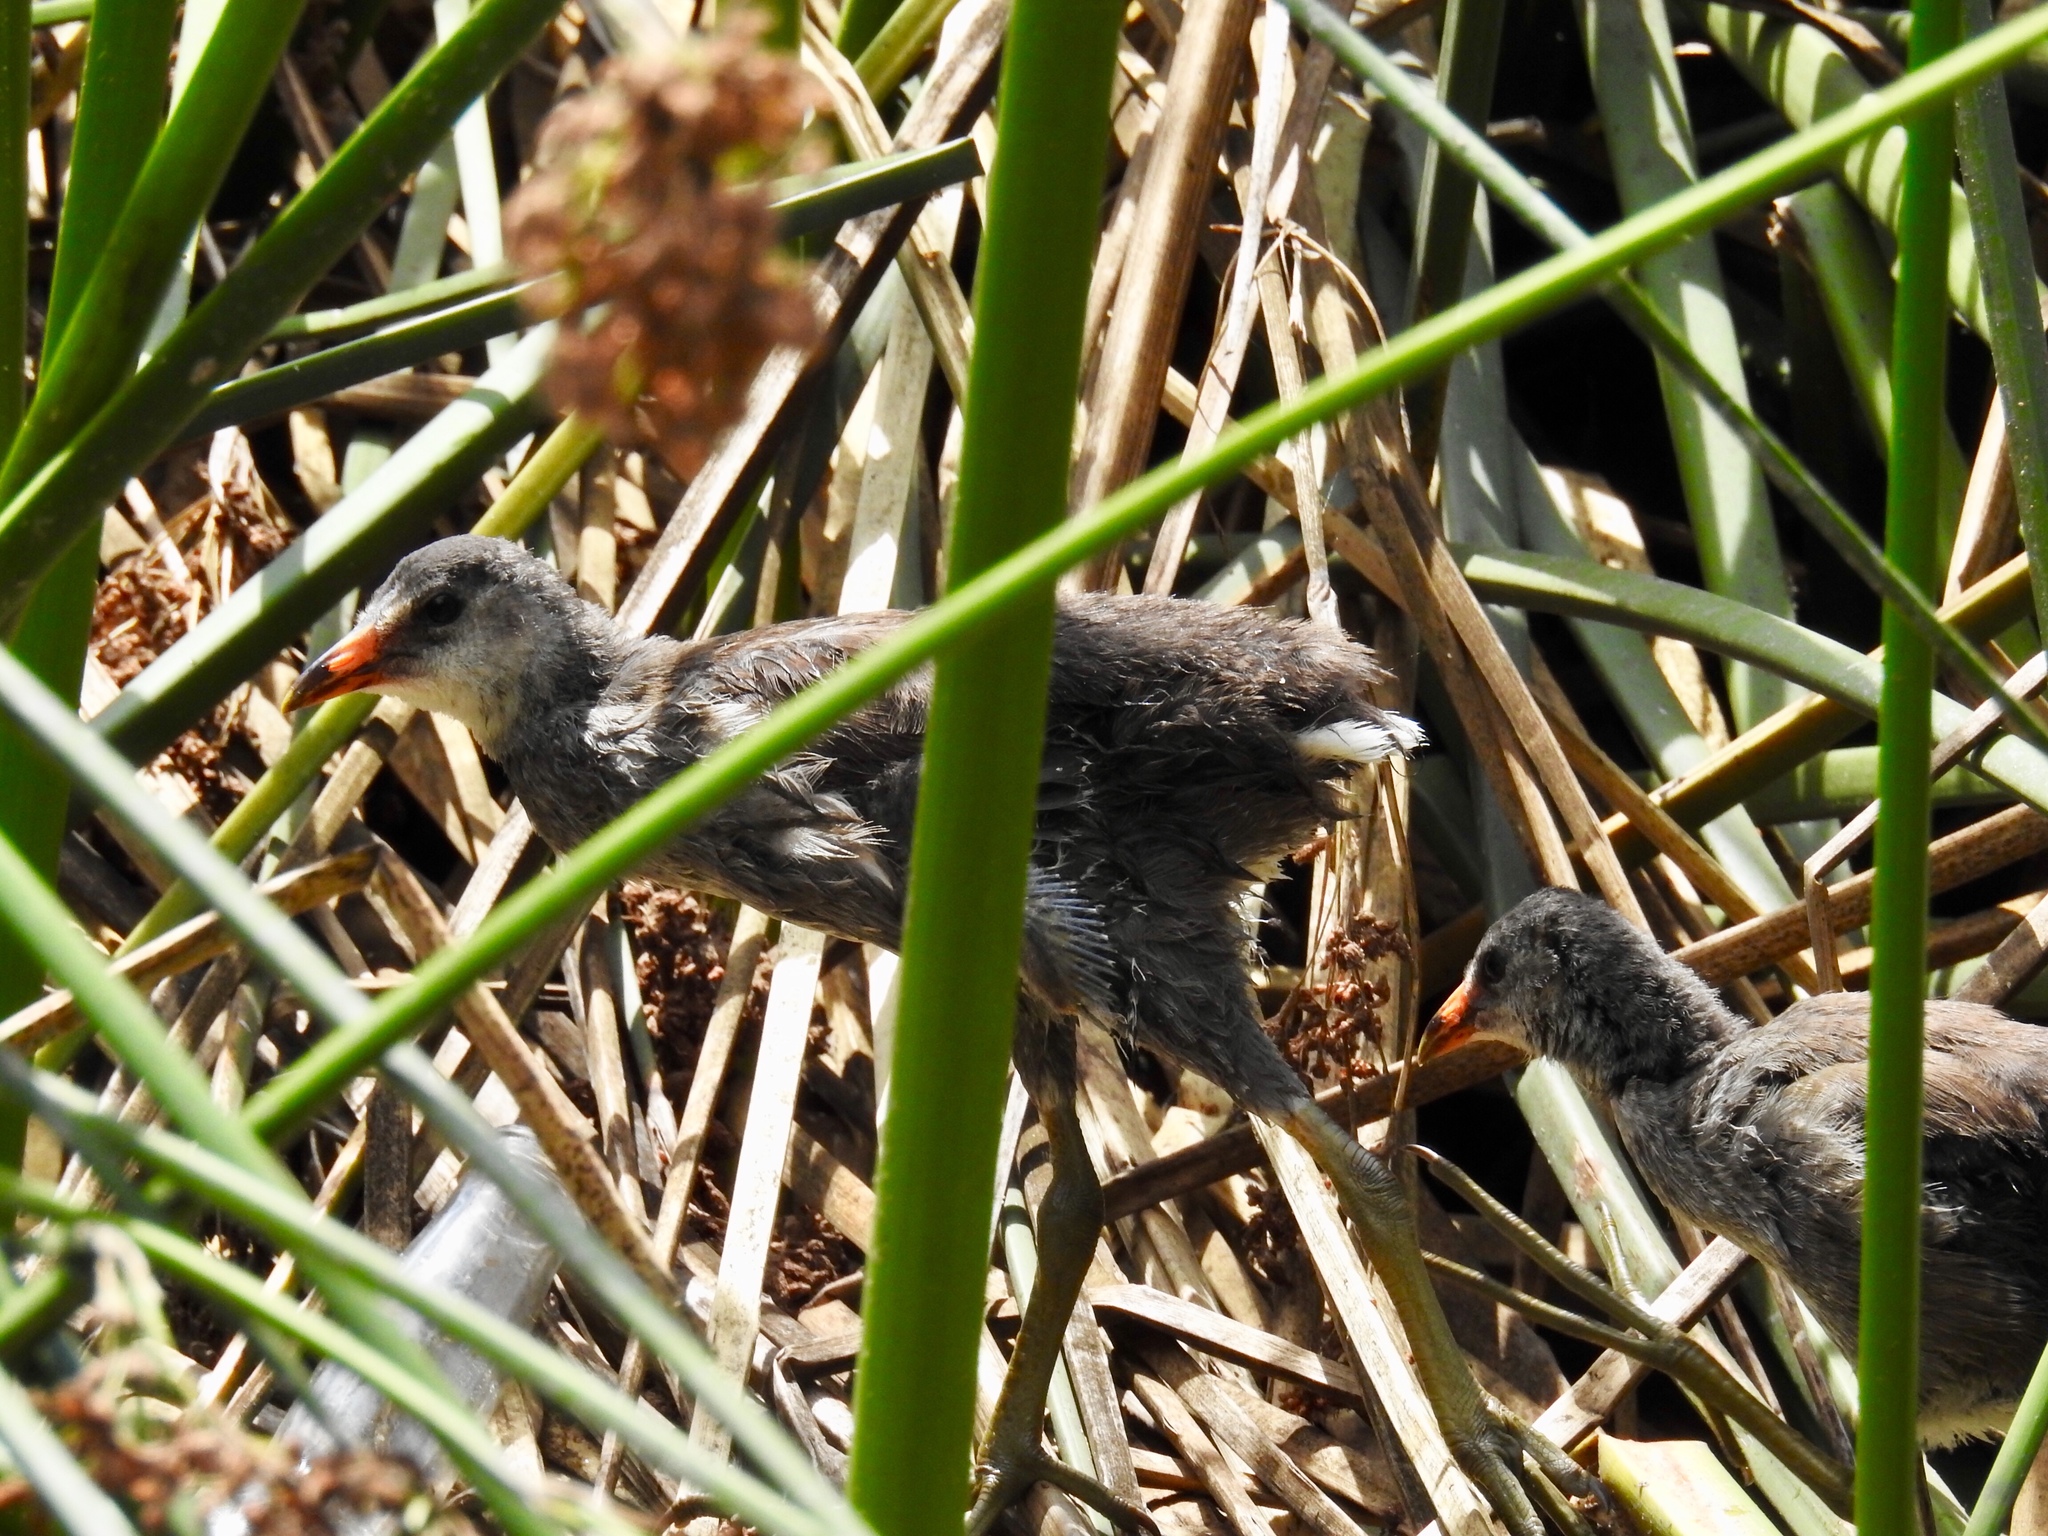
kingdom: Animalia
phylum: Chordata
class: Aves
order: Gruiformes
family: Rallidae
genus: Gallinula
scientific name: Gallinula chloropus
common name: Common moorhen
